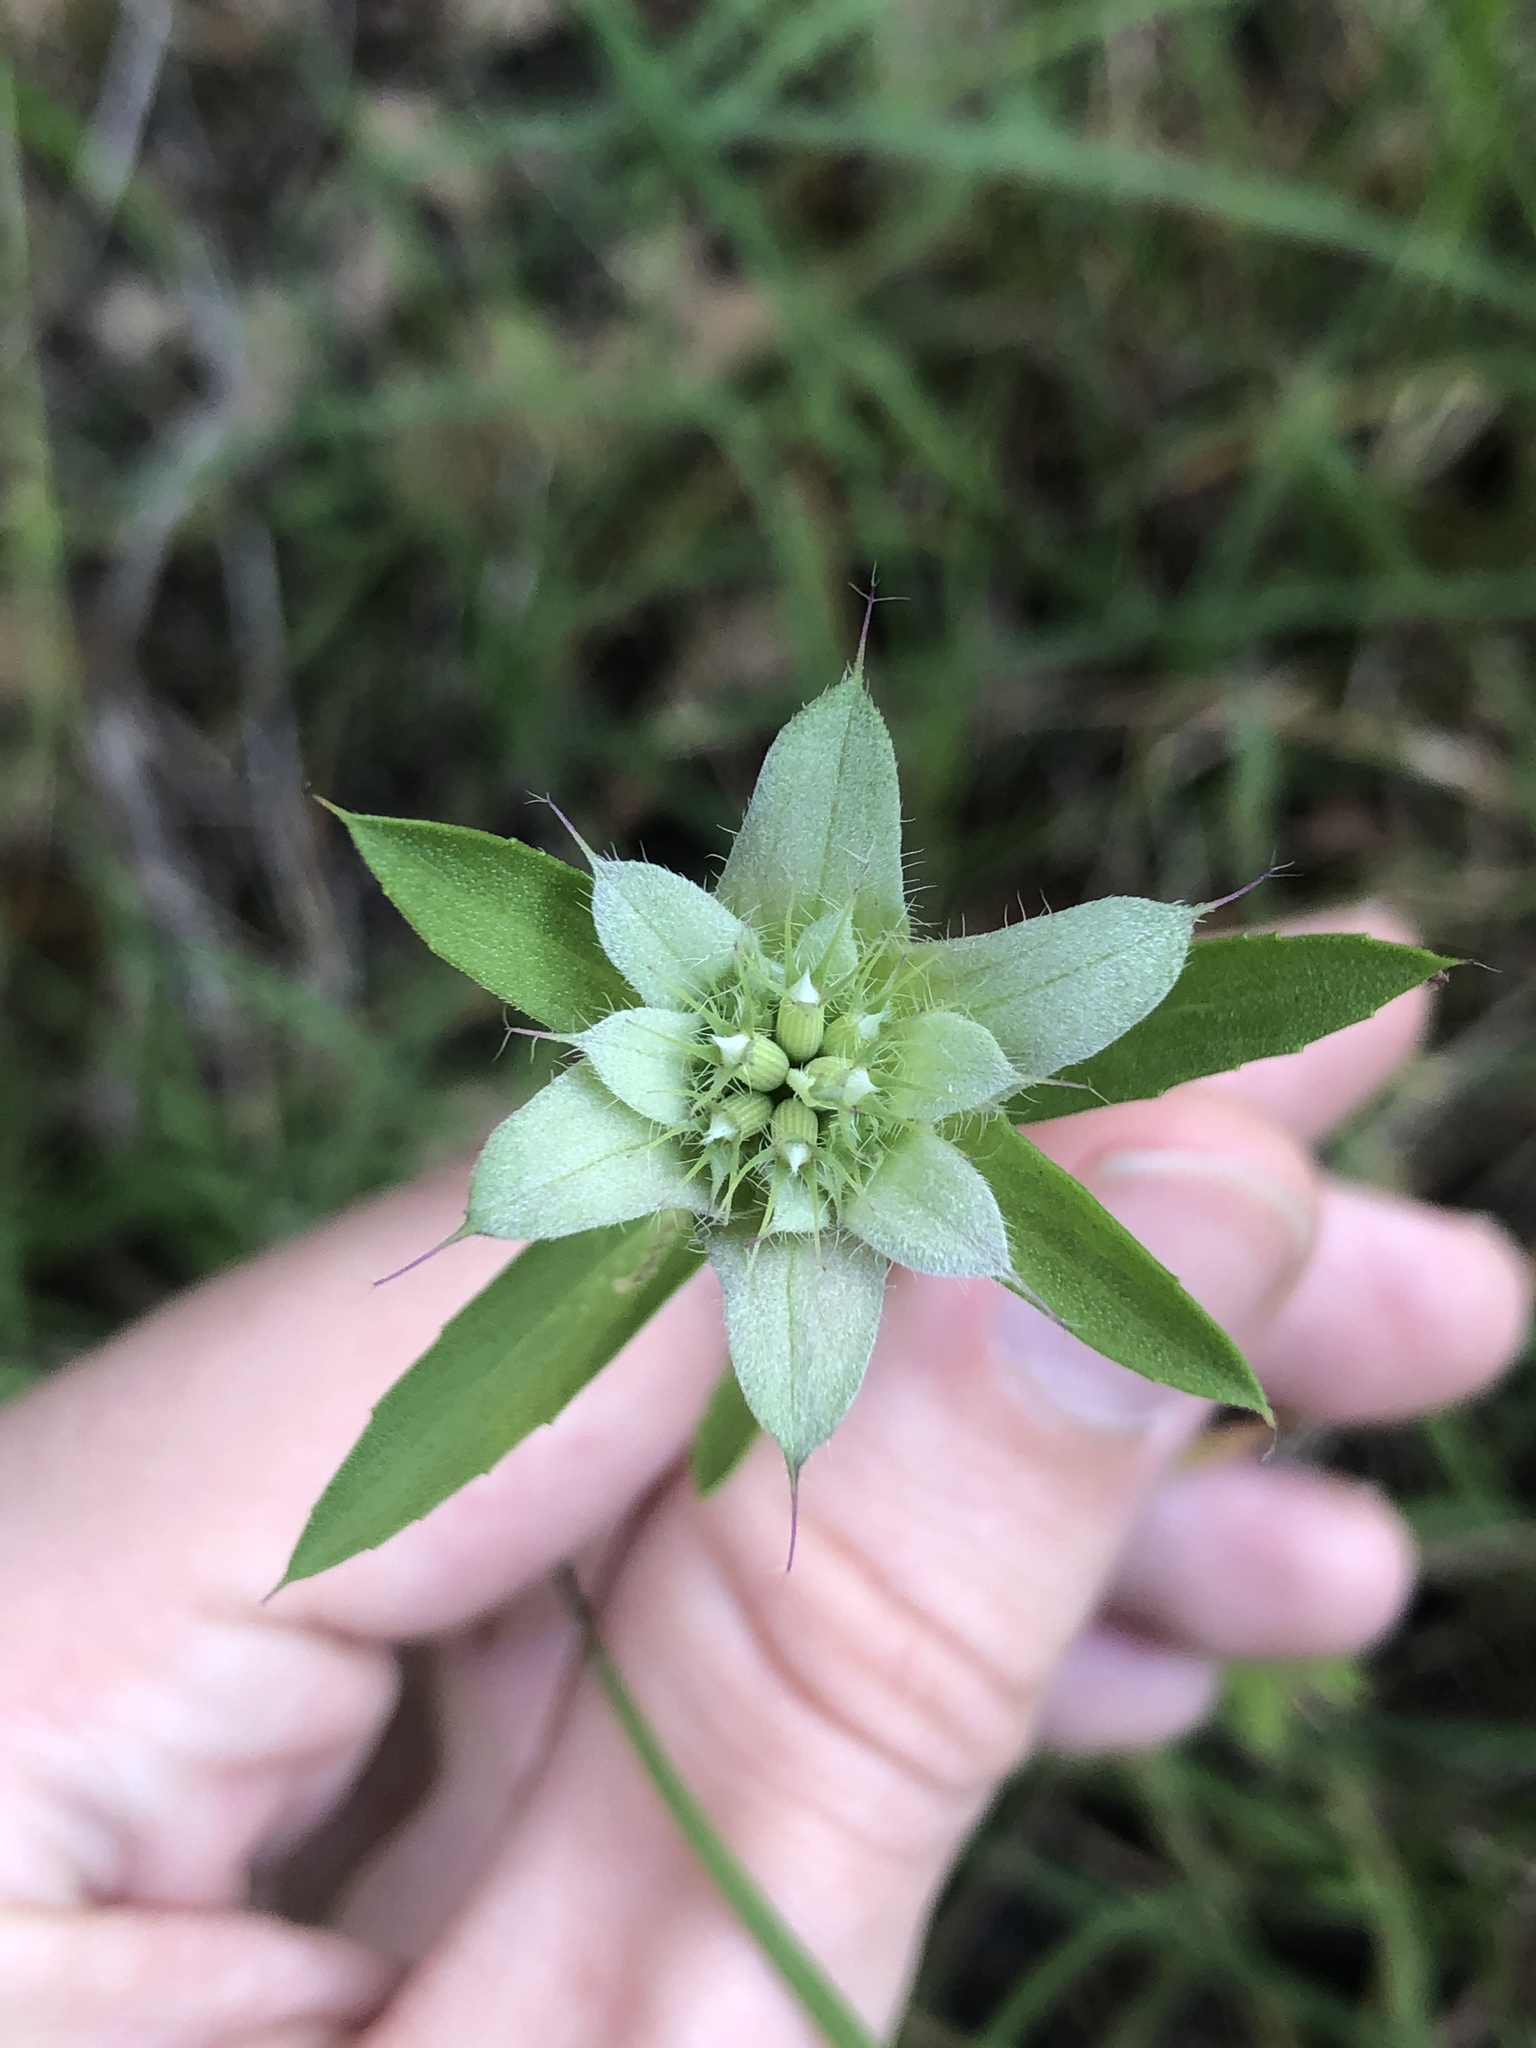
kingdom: Plantae
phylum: Tracheophyta
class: Magnoliopsida
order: Lamiales
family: Lamiaceae
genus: Monarda
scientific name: Monarda citriodora
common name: Lemon beebalm
